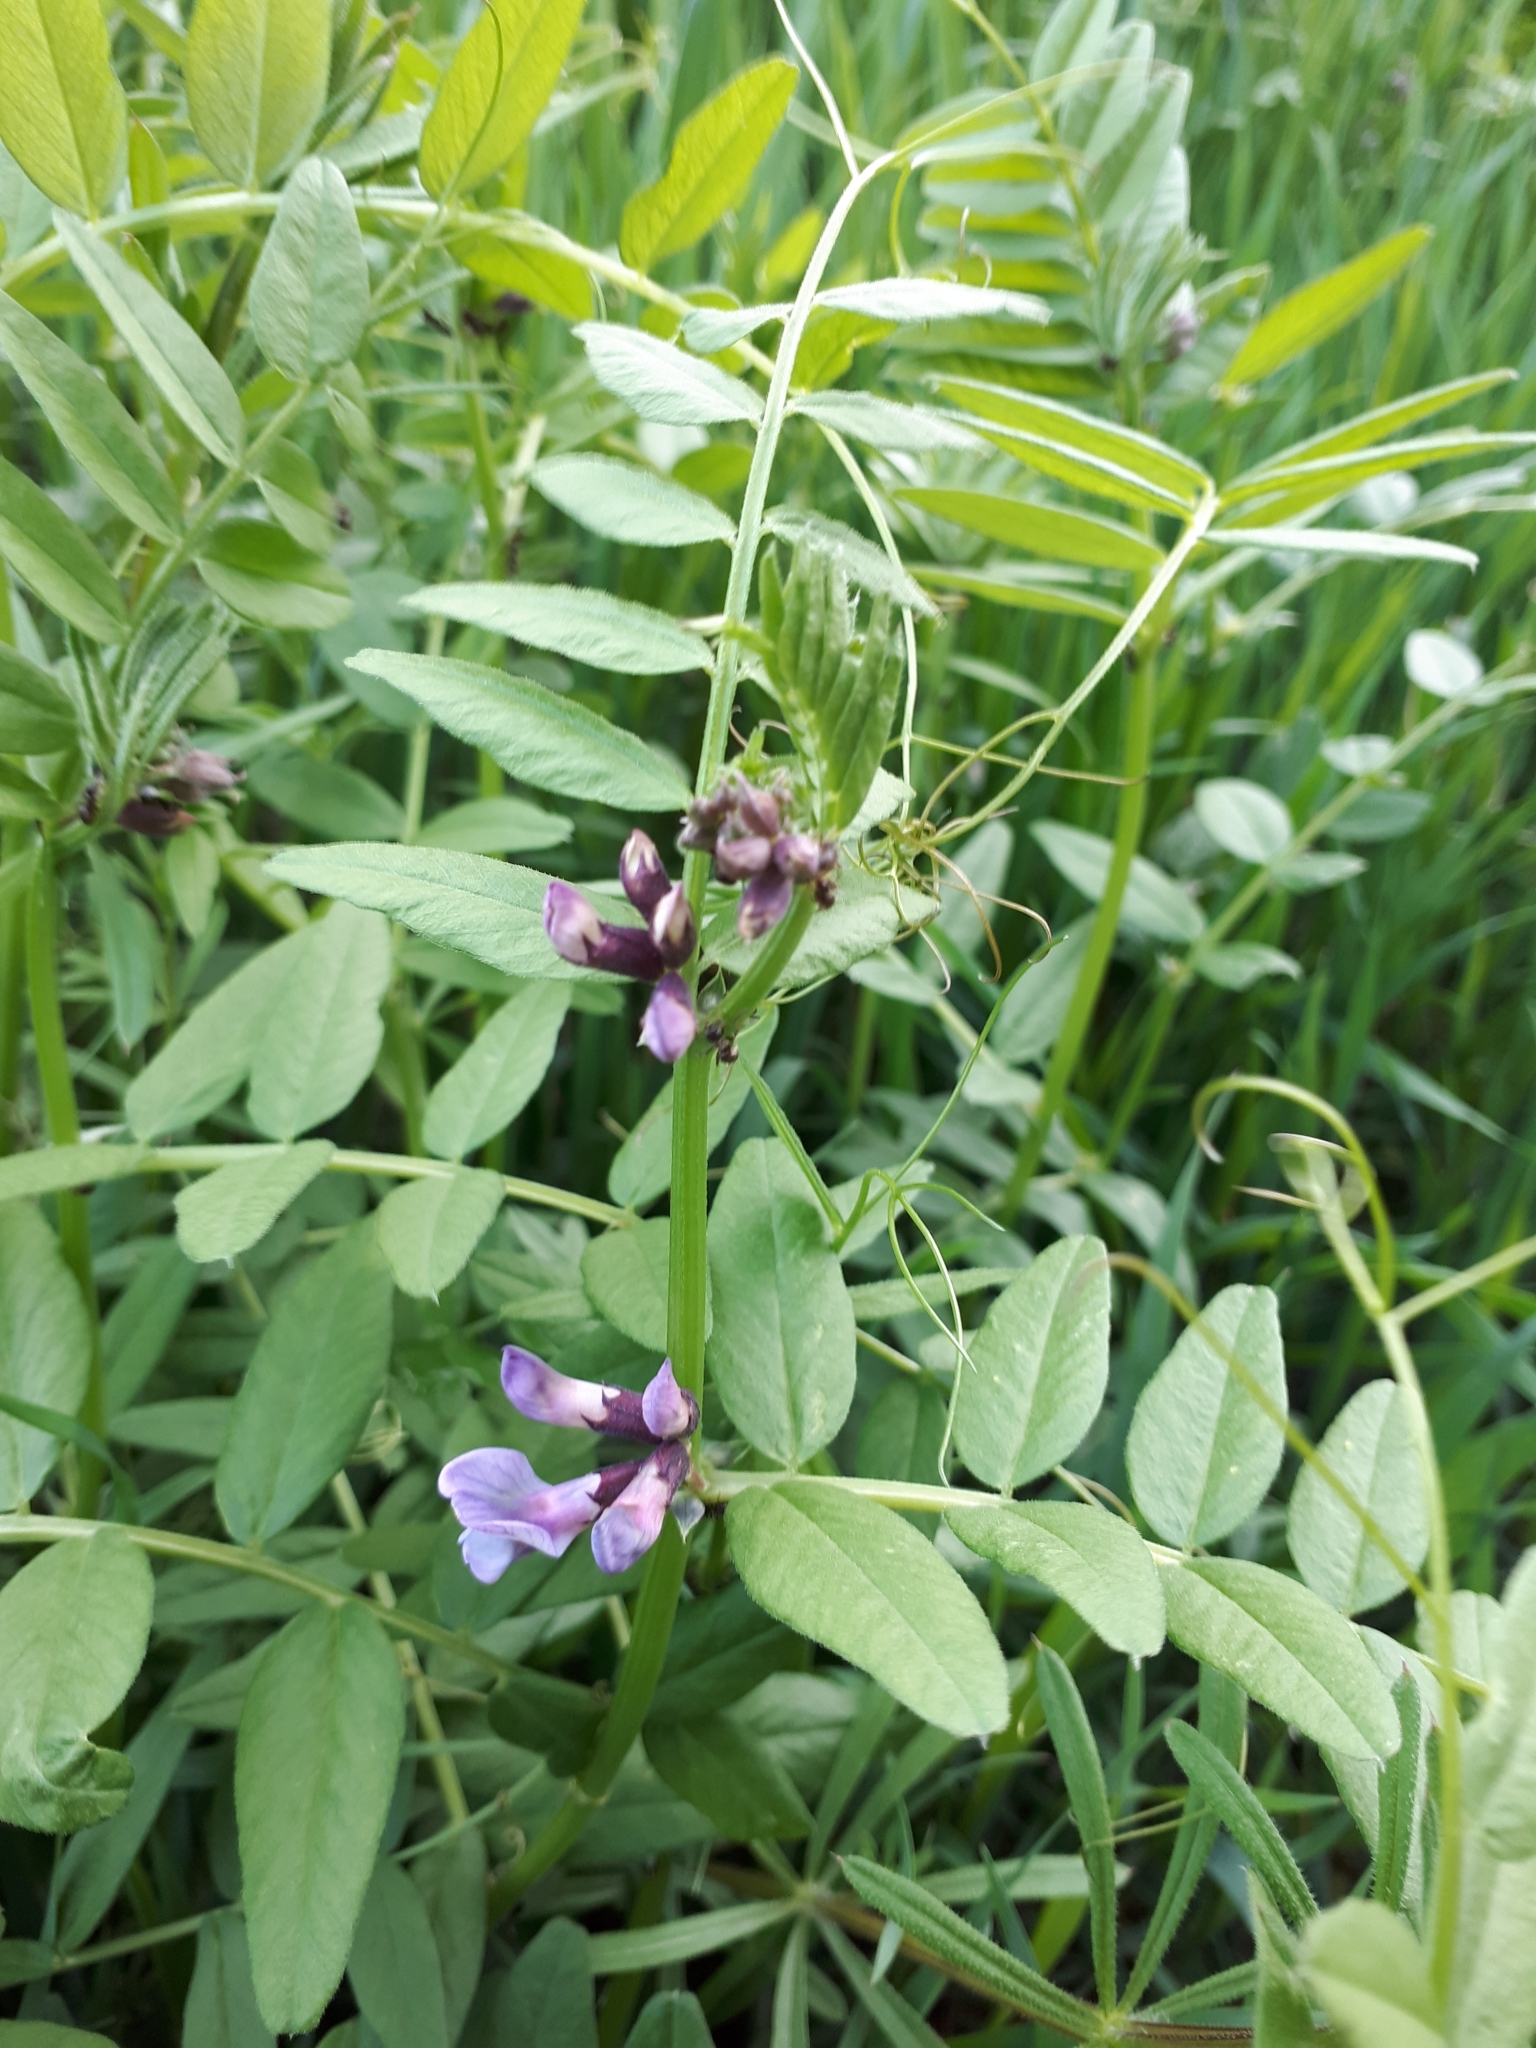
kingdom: Plantae
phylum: Tracheophyta
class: Magnoliopsida
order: Fabales
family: Fabaceae
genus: Vicia
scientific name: Vicia sepium
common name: Bush vetch
